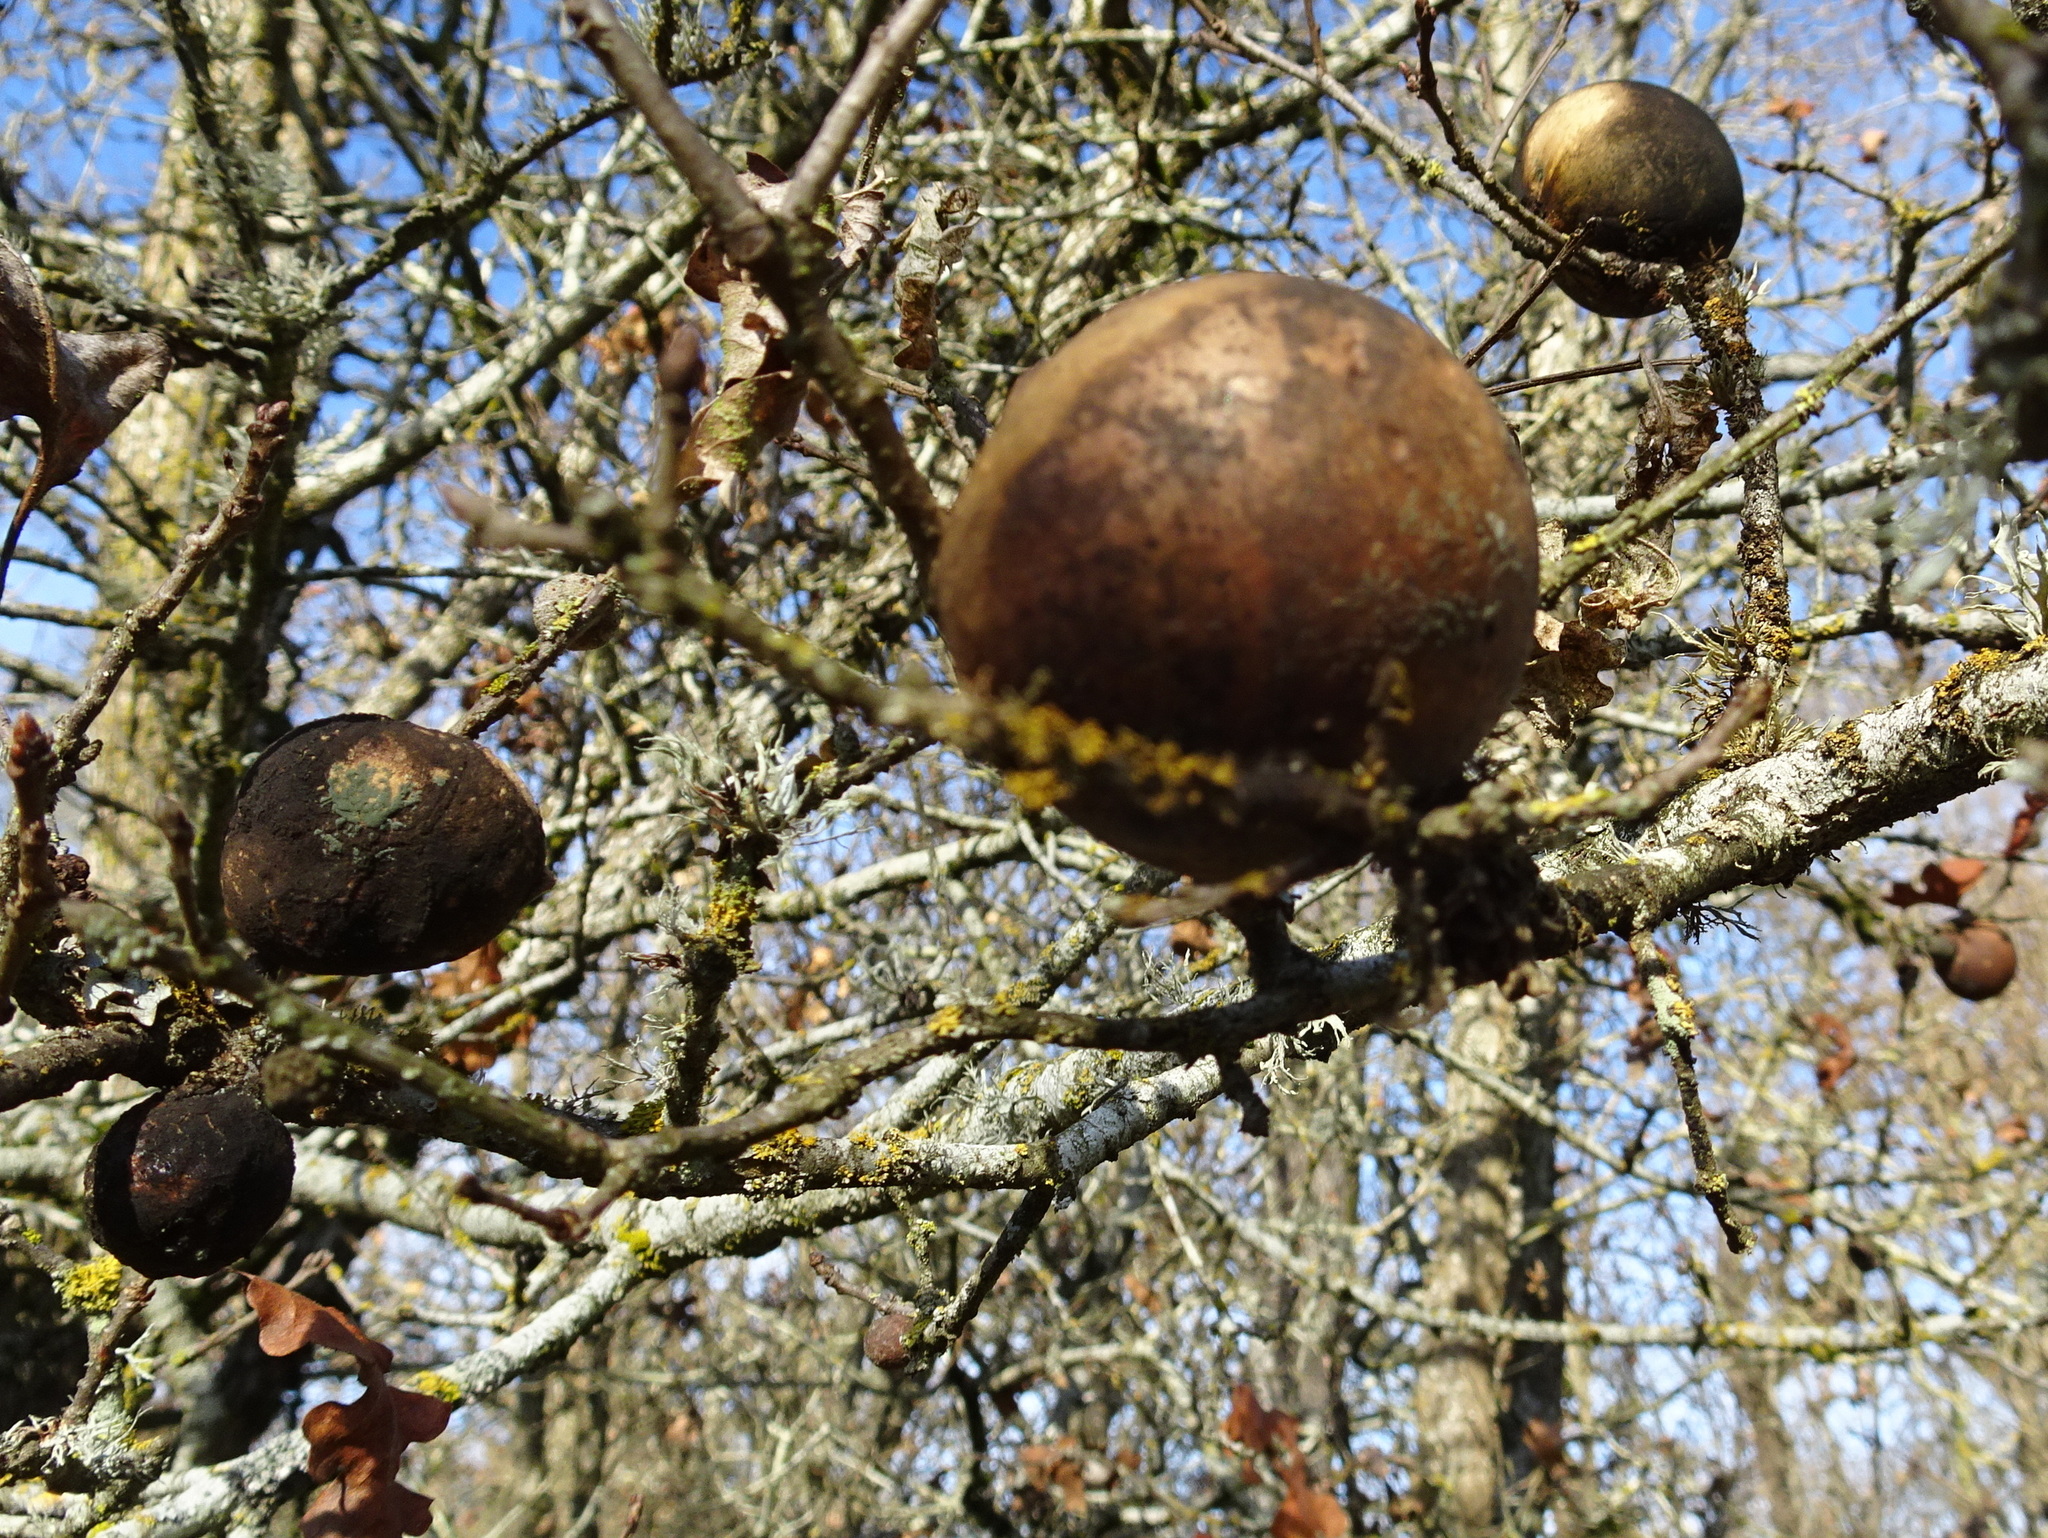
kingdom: Animalia
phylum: Arthropoda
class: Insecta
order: Hymenoptera
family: Cynipidae
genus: Andricus
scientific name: Andricus quercuscalifornicus
